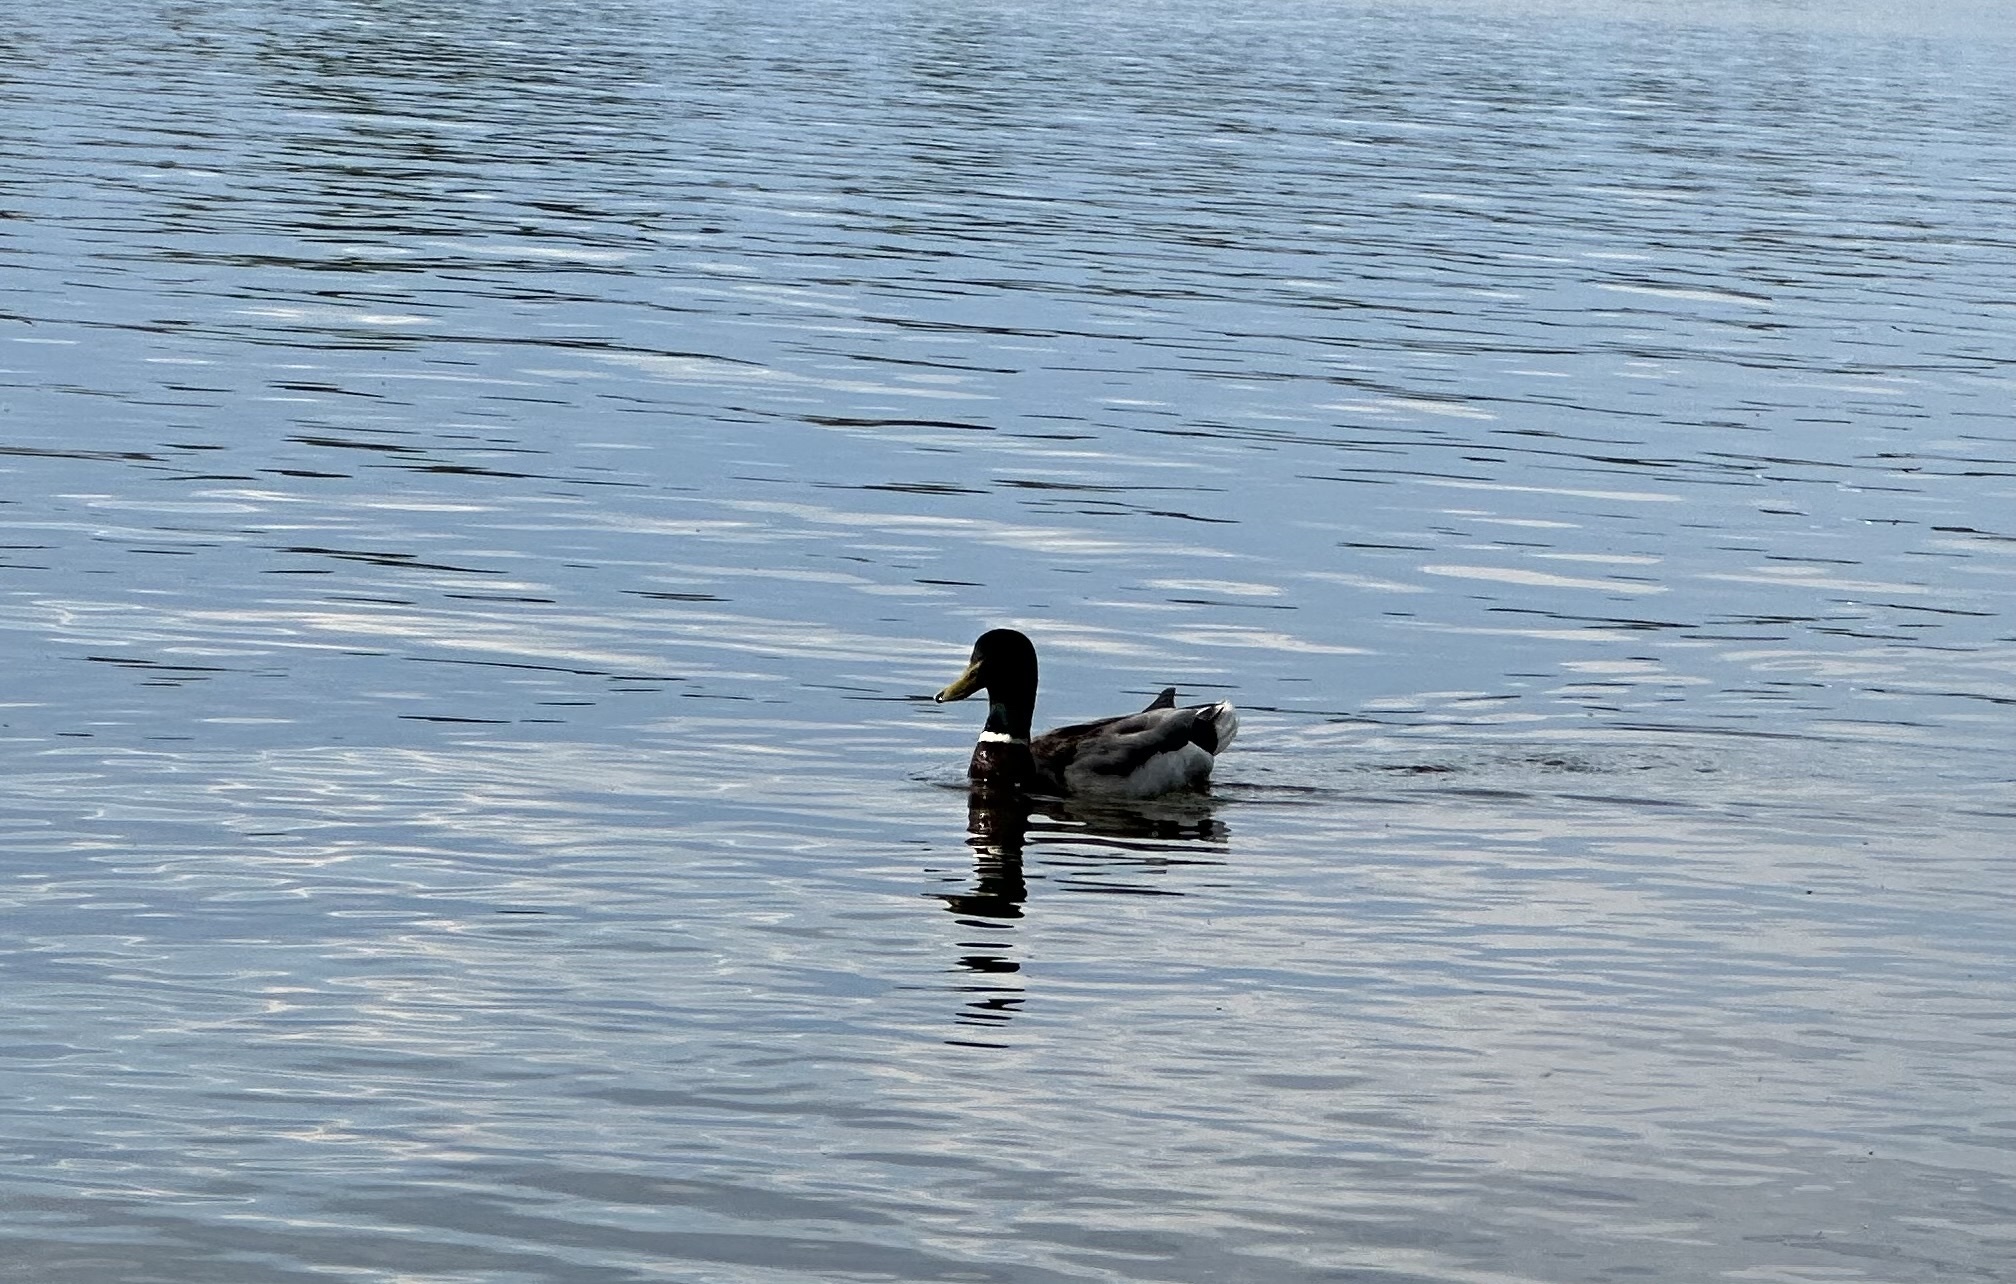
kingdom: Animalia
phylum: Chordata
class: Aves
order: Anseriformes
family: Anatidae
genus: Anas
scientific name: Anas platyrhynchos
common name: Mallard
